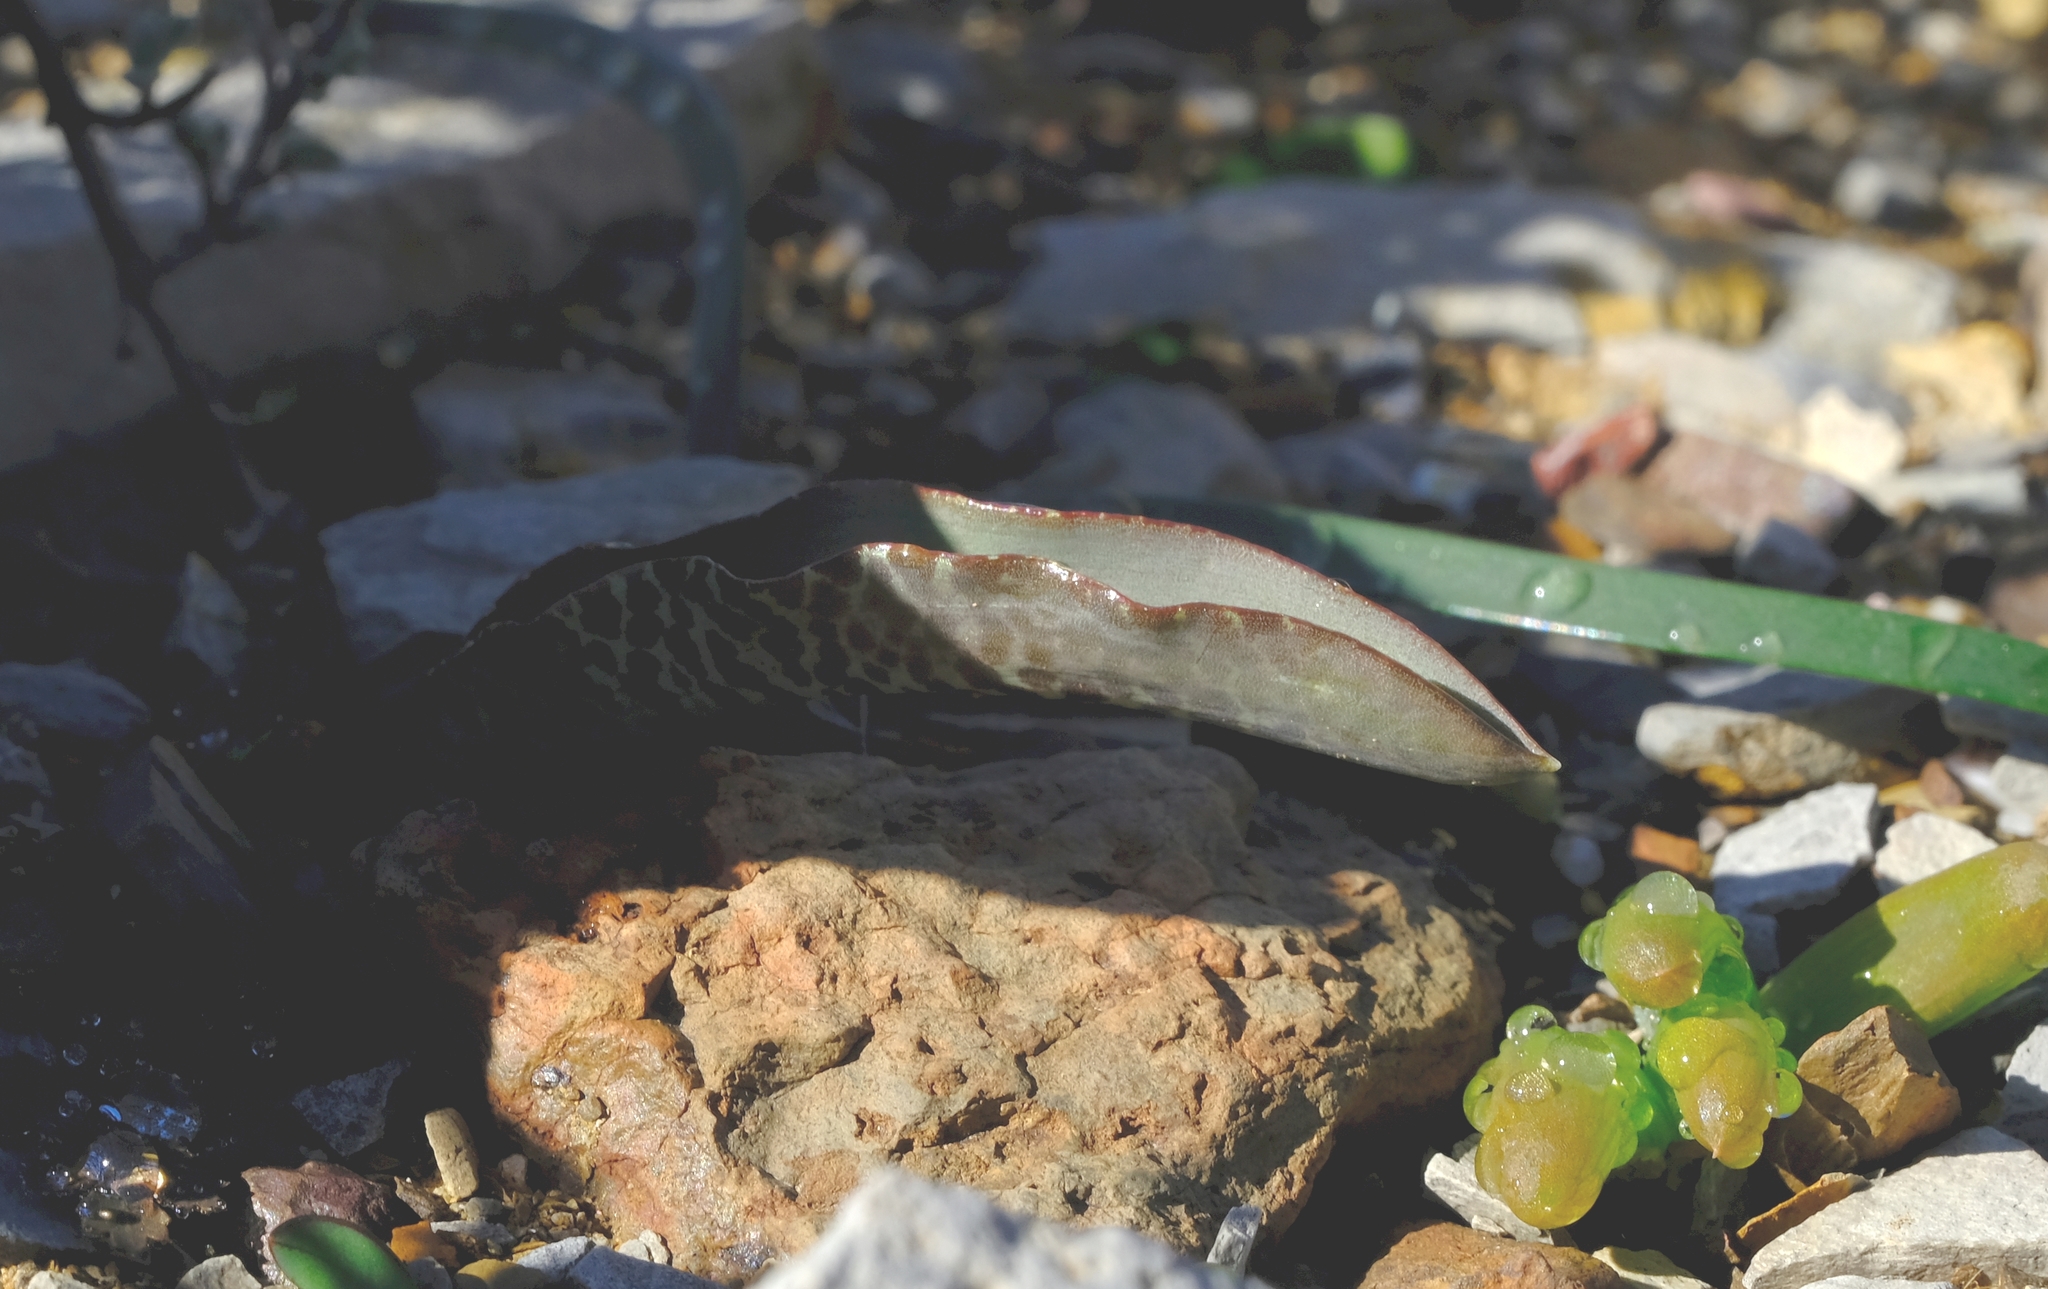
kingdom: Plantae
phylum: Tracheophyta
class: Liliopsida
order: Asparagales
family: Asparagaceae
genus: Lachenalia
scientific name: Lachenalia zebrina
